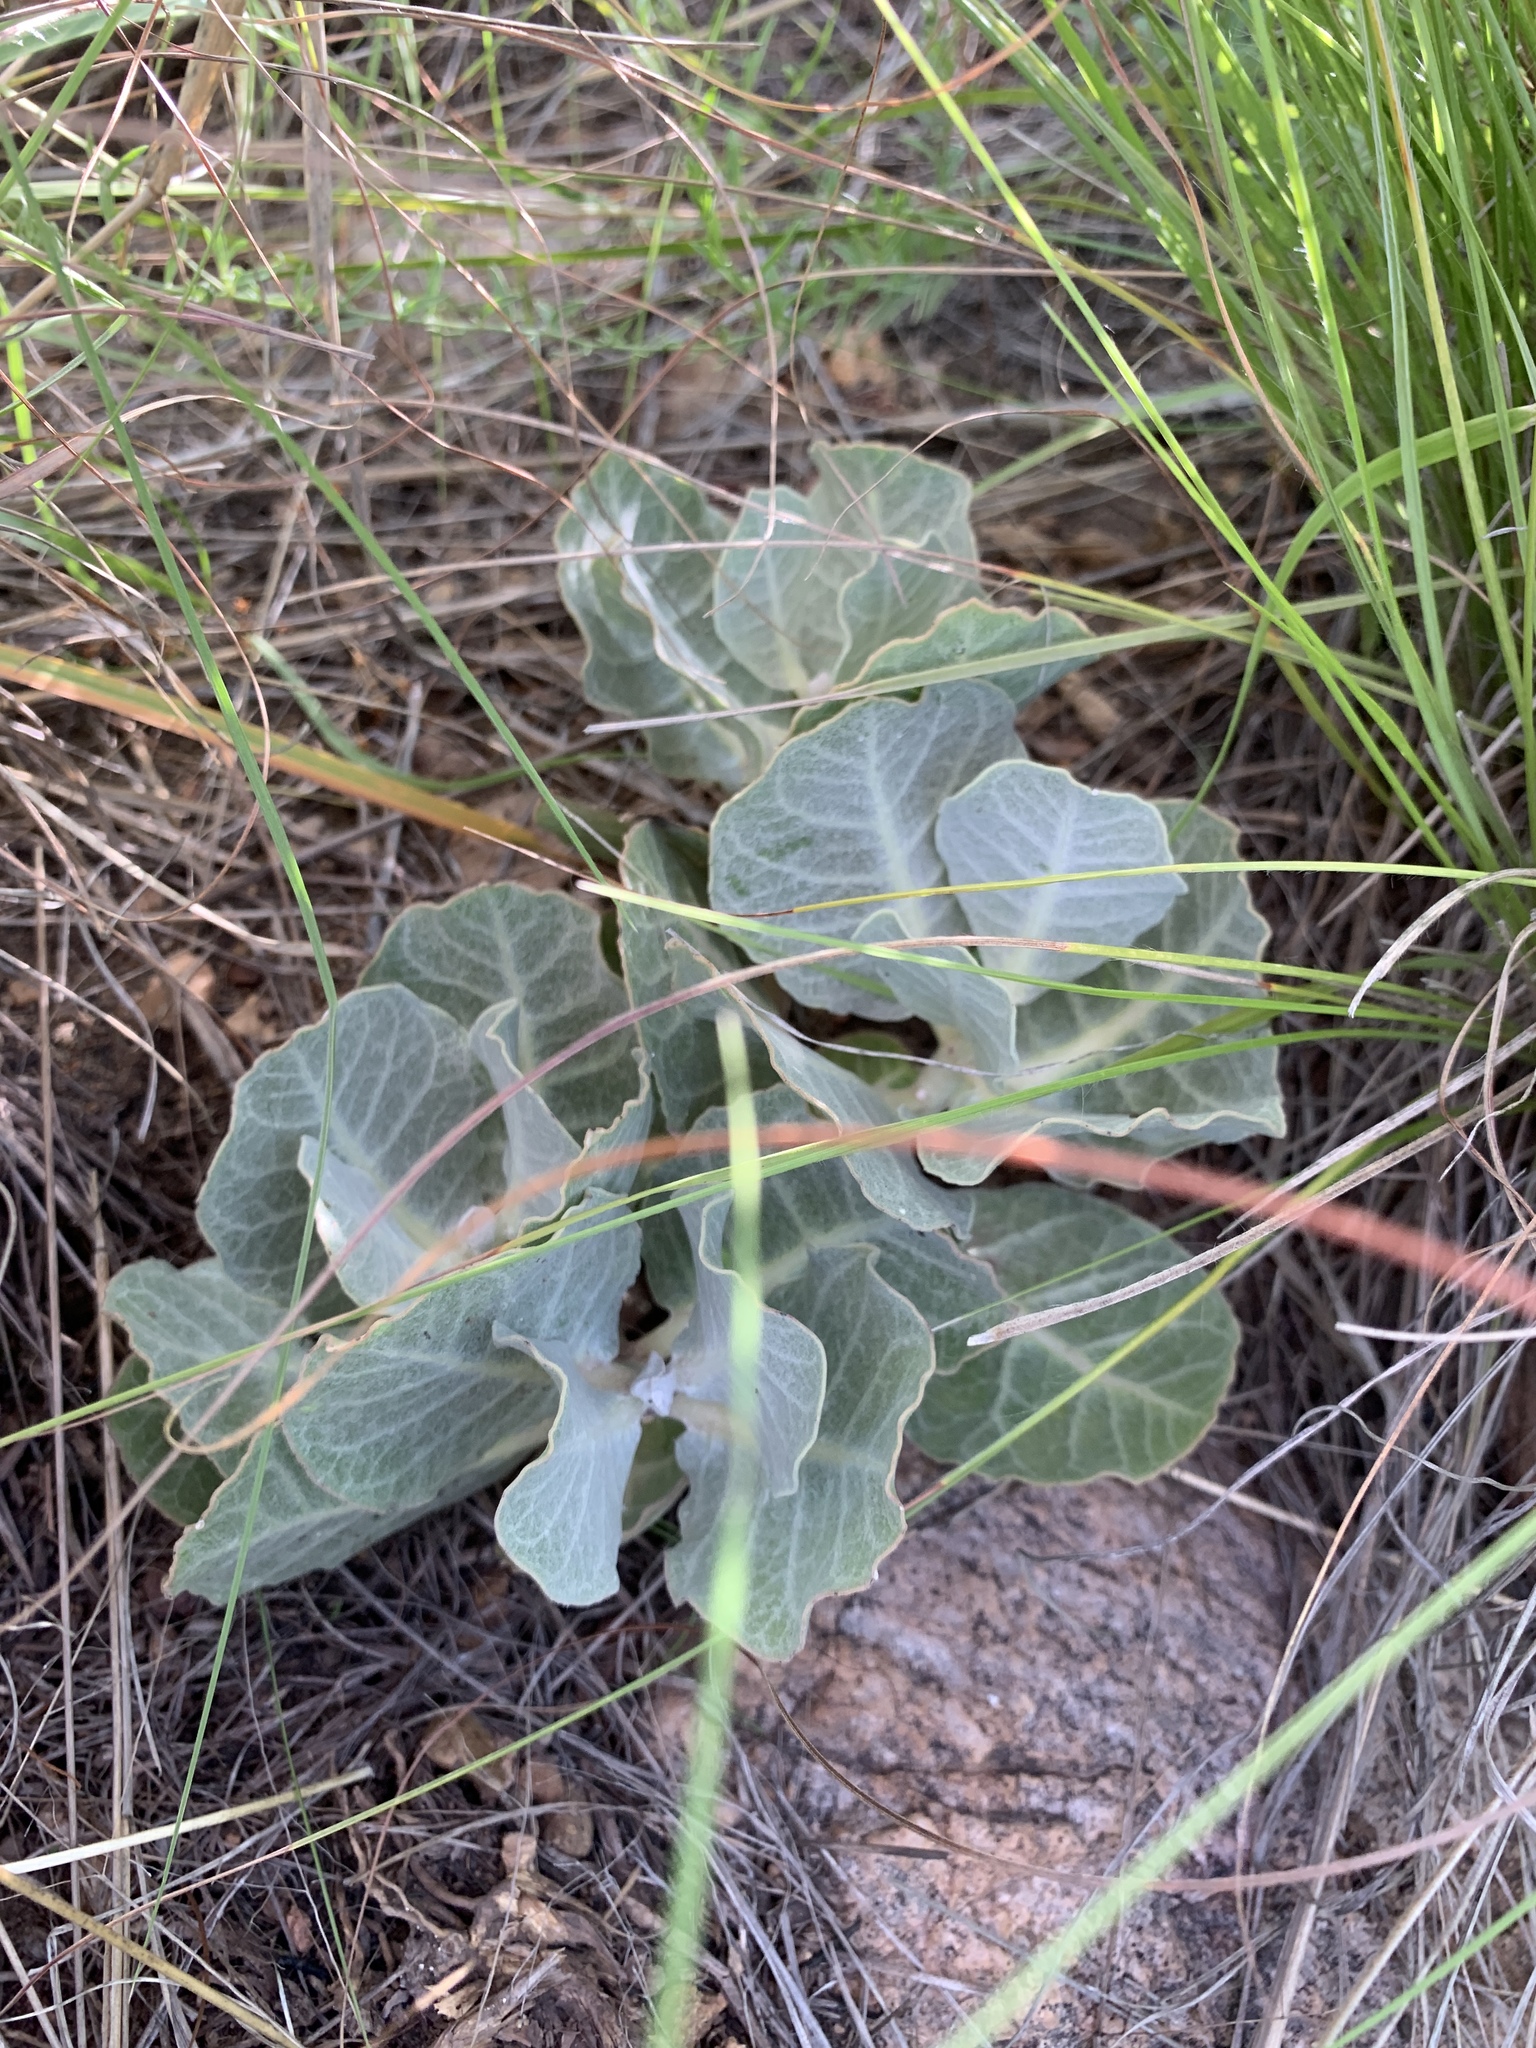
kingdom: Plantae
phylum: Tracheophyta
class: Magnoliopsida
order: Gentianales
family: Apocynaceae
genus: Asclepias
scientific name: Asclepias nummularia
